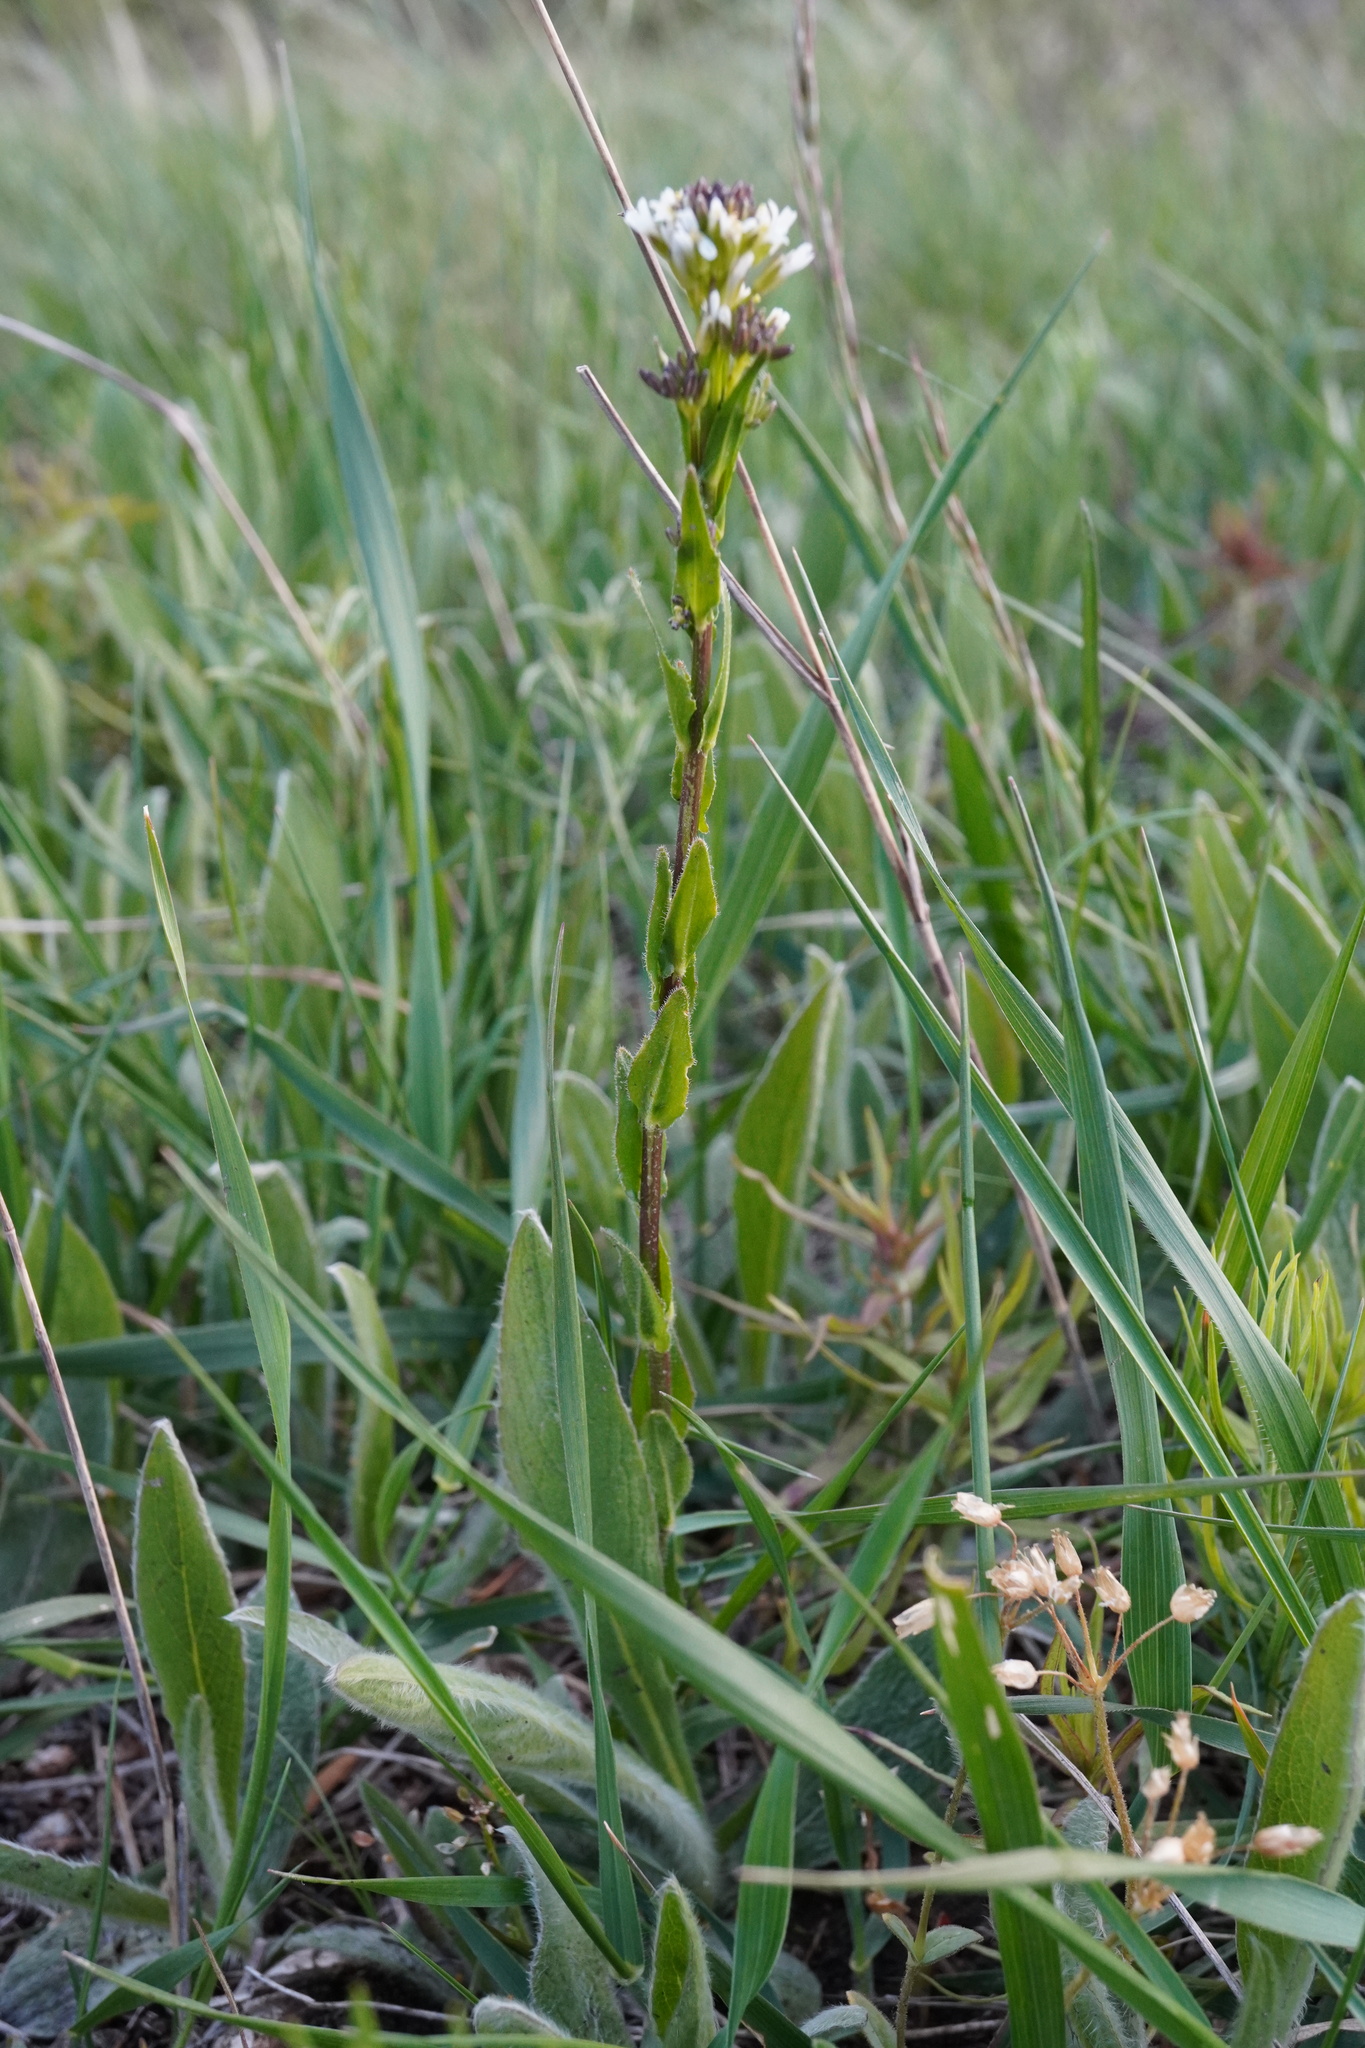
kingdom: Plantae
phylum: Tracheophyta
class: Magnoliopsida
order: Brassicales
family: Brassicaceae
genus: Arabis
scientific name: Arabis hirsuta
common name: Hairy rock-cress
